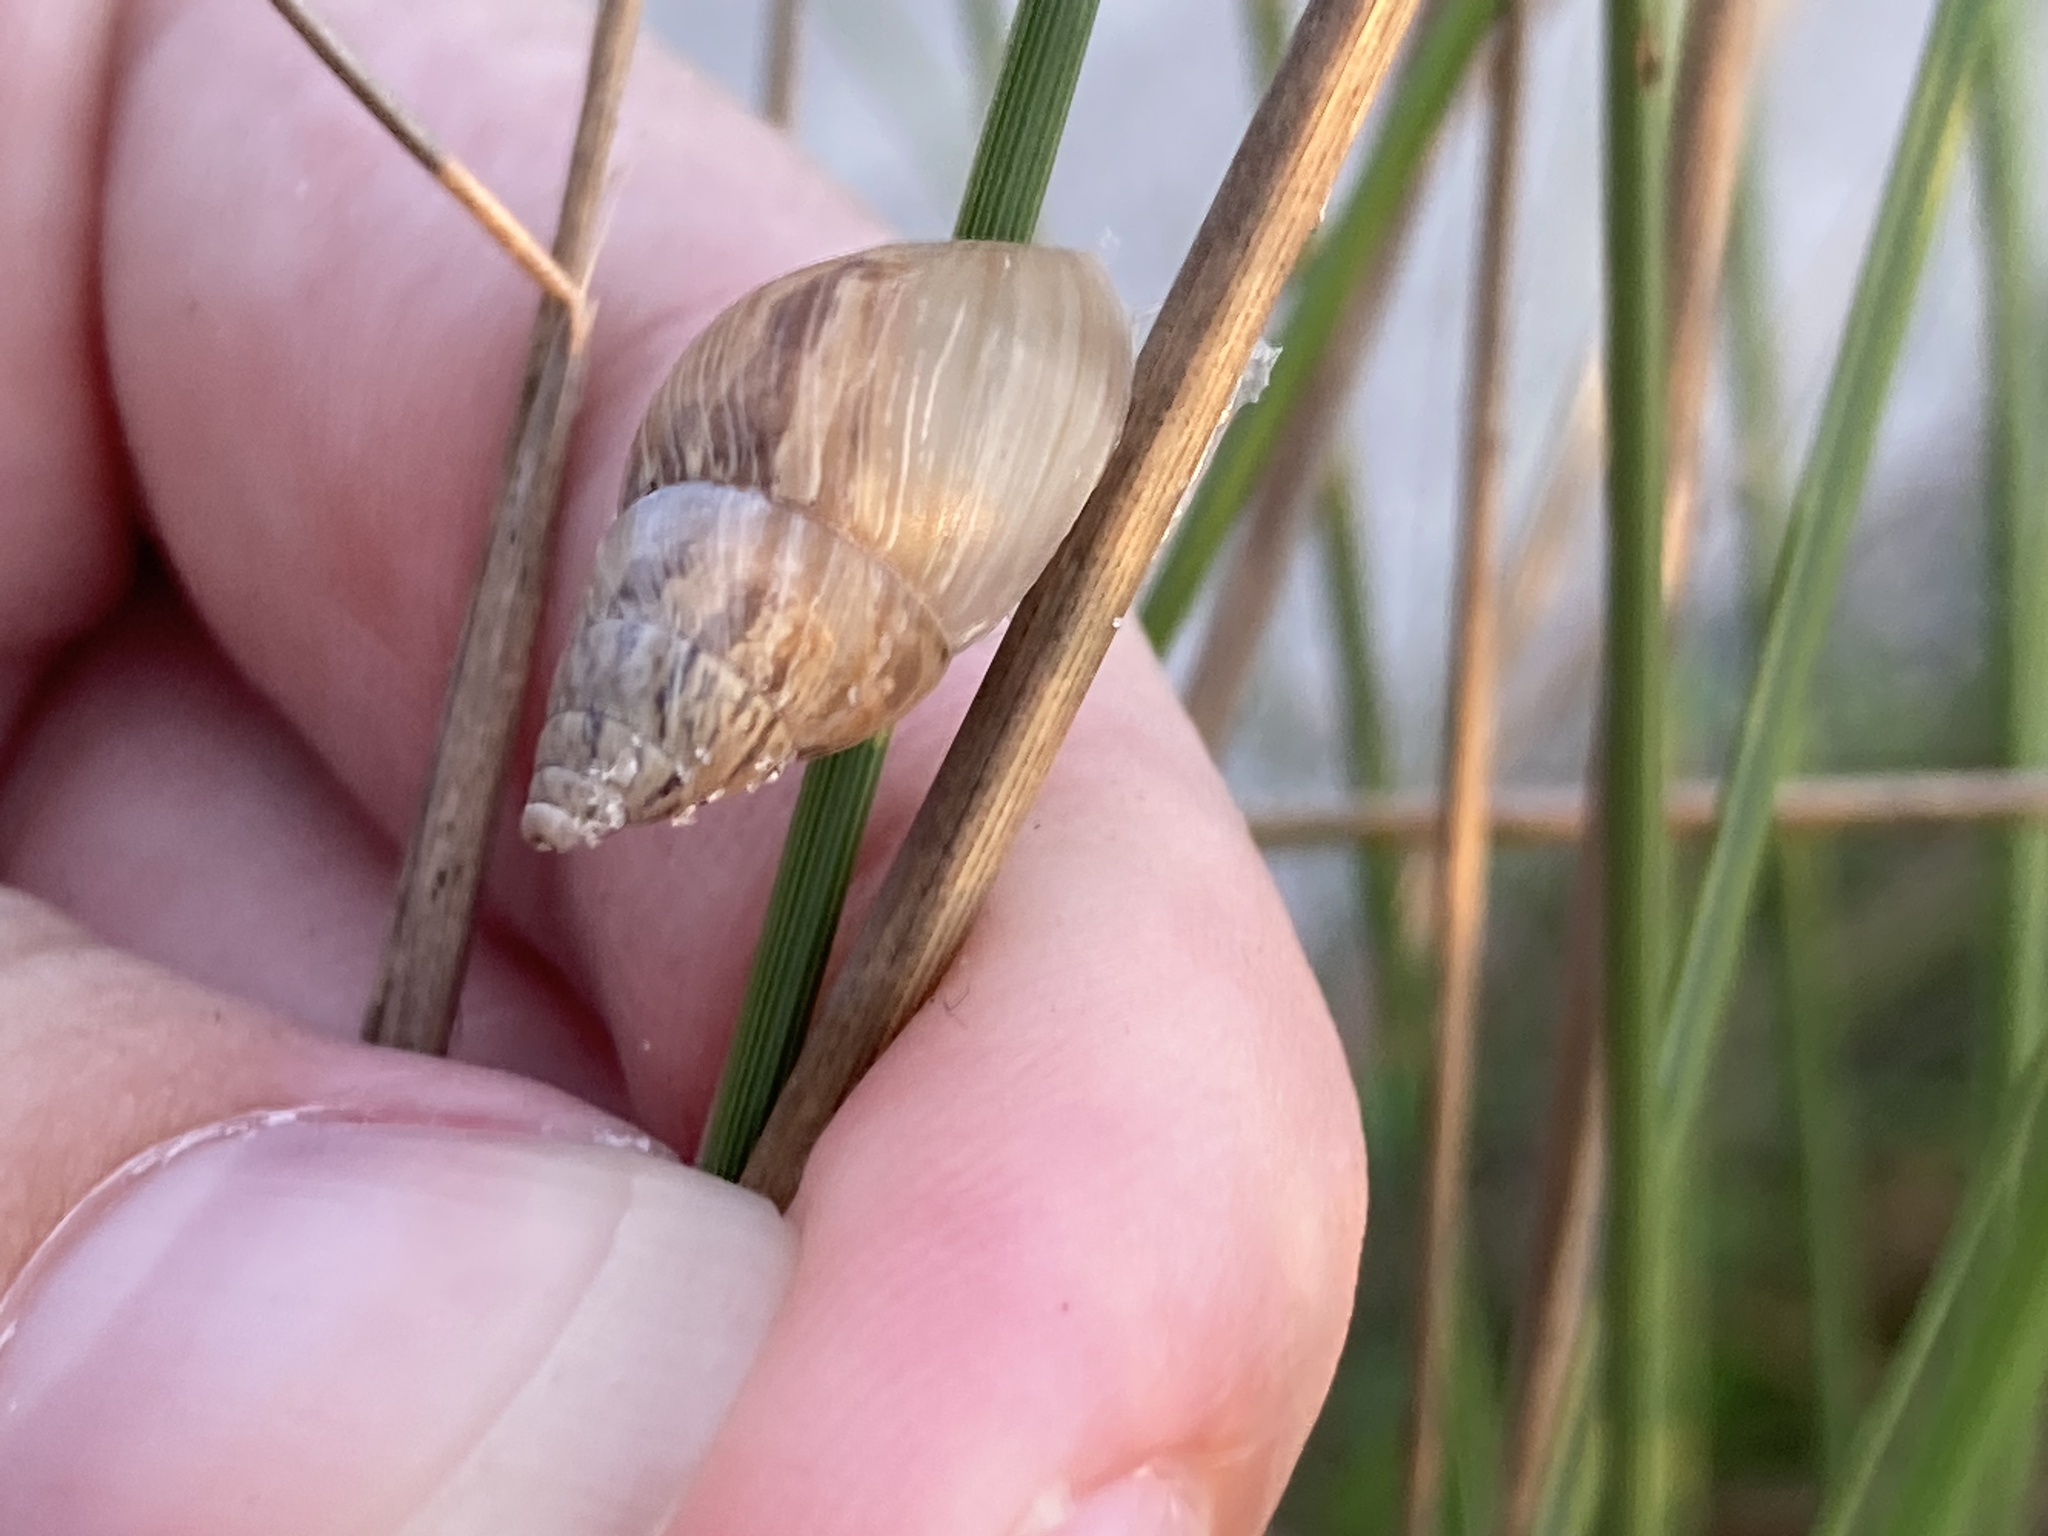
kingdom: Animalia
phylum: Mollusca
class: Gastropoda
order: Stylommatophora
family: Bulimulidae
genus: Bulimulus
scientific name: Bulimulus bonariensis
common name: Snail
